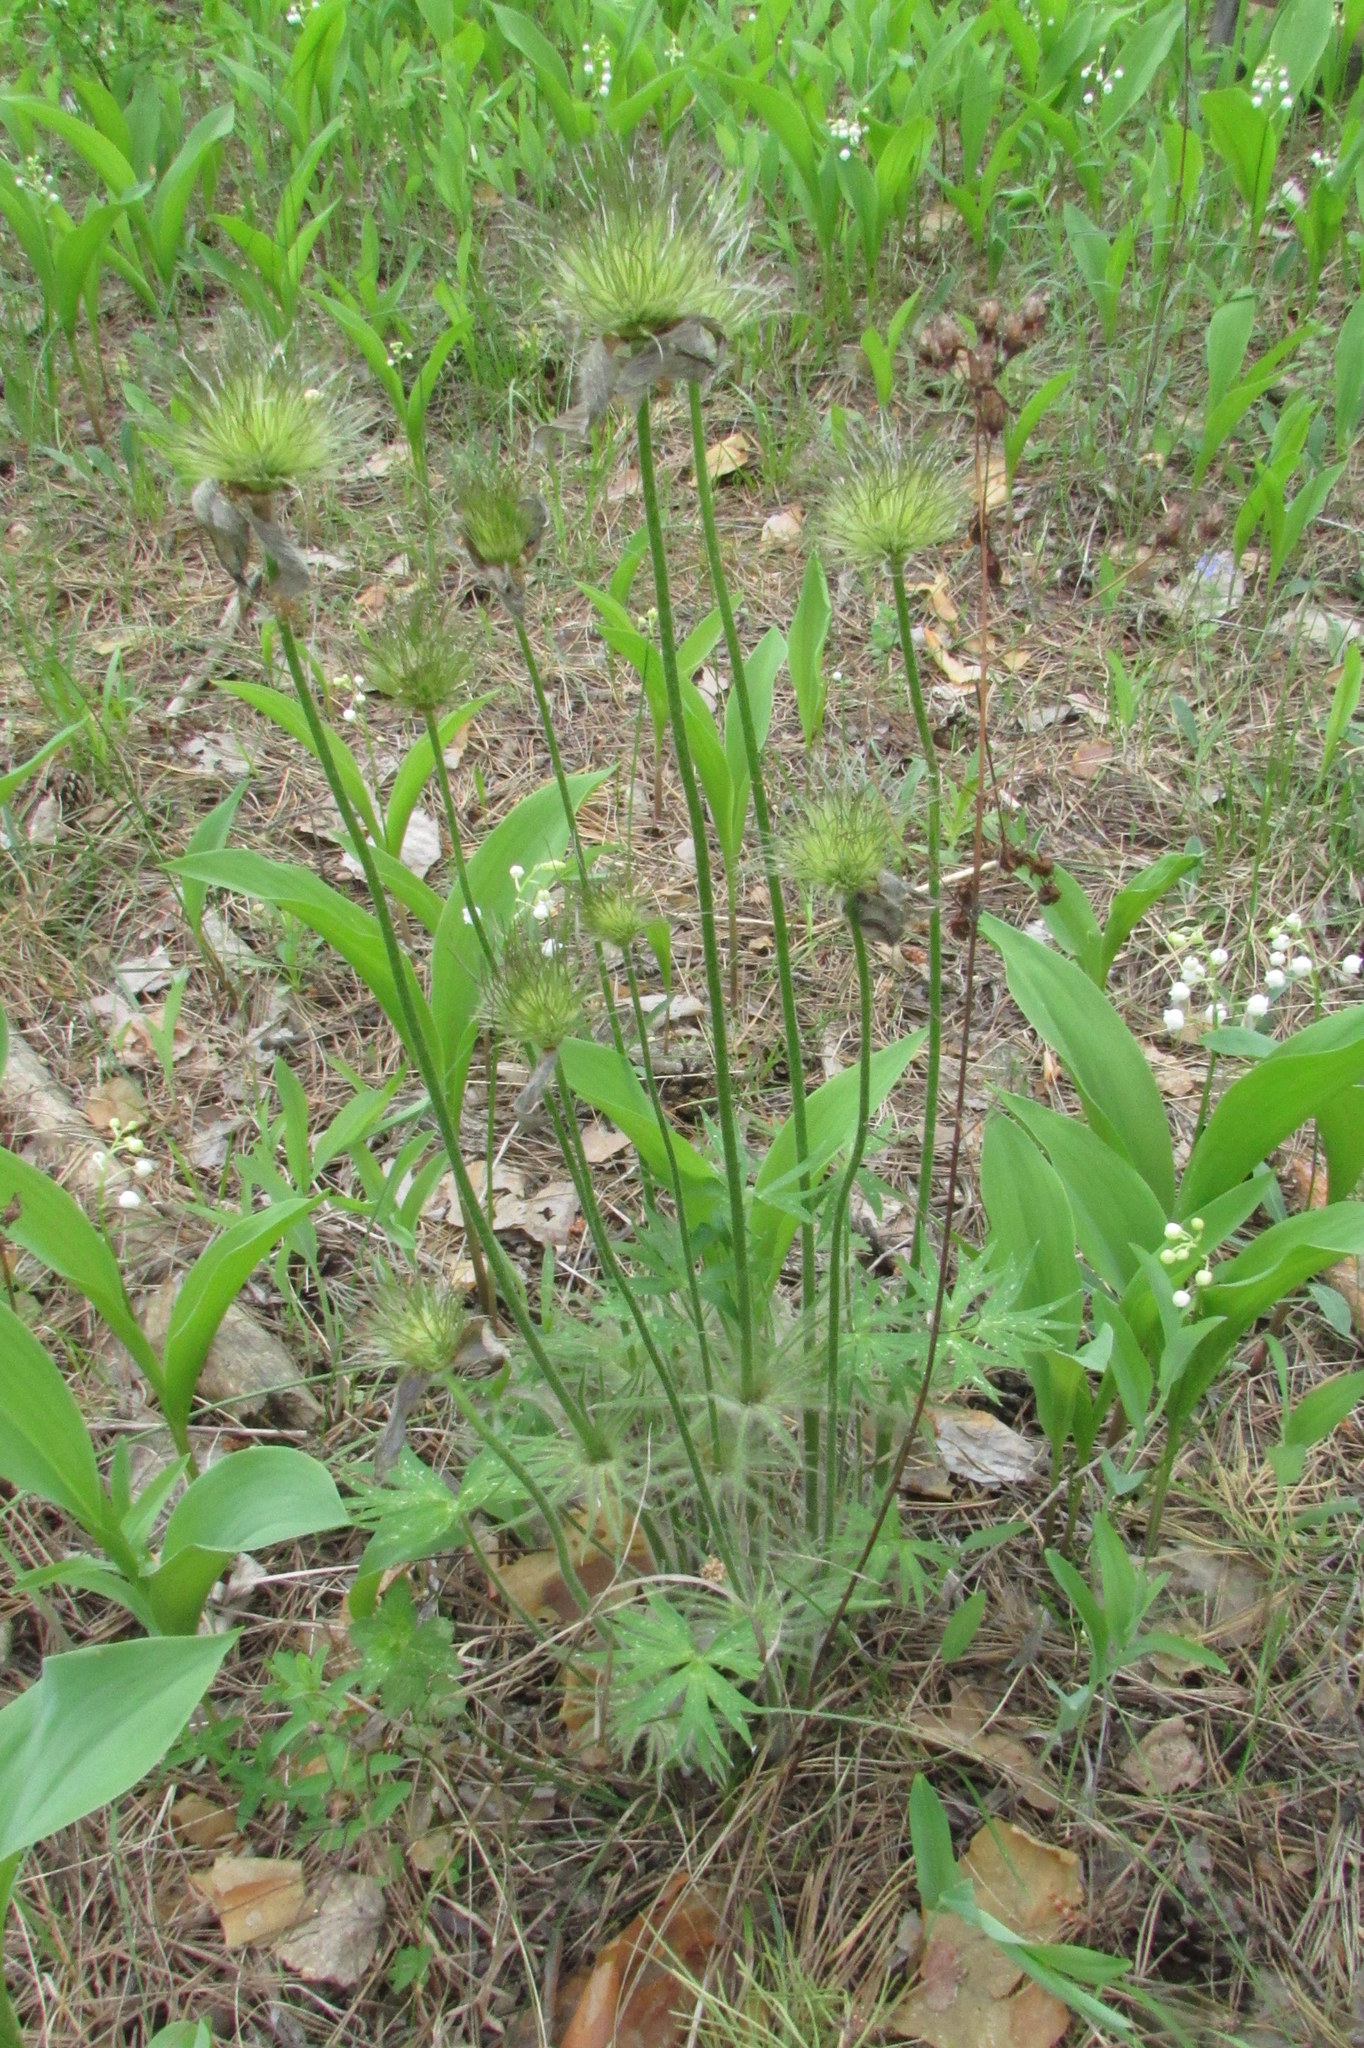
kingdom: Plantae
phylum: Tracheophyta
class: Magnoliopsida
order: Ranunculales
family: Ranunculaceae
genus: Pulsatilla
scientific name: Pulsatilla patens
